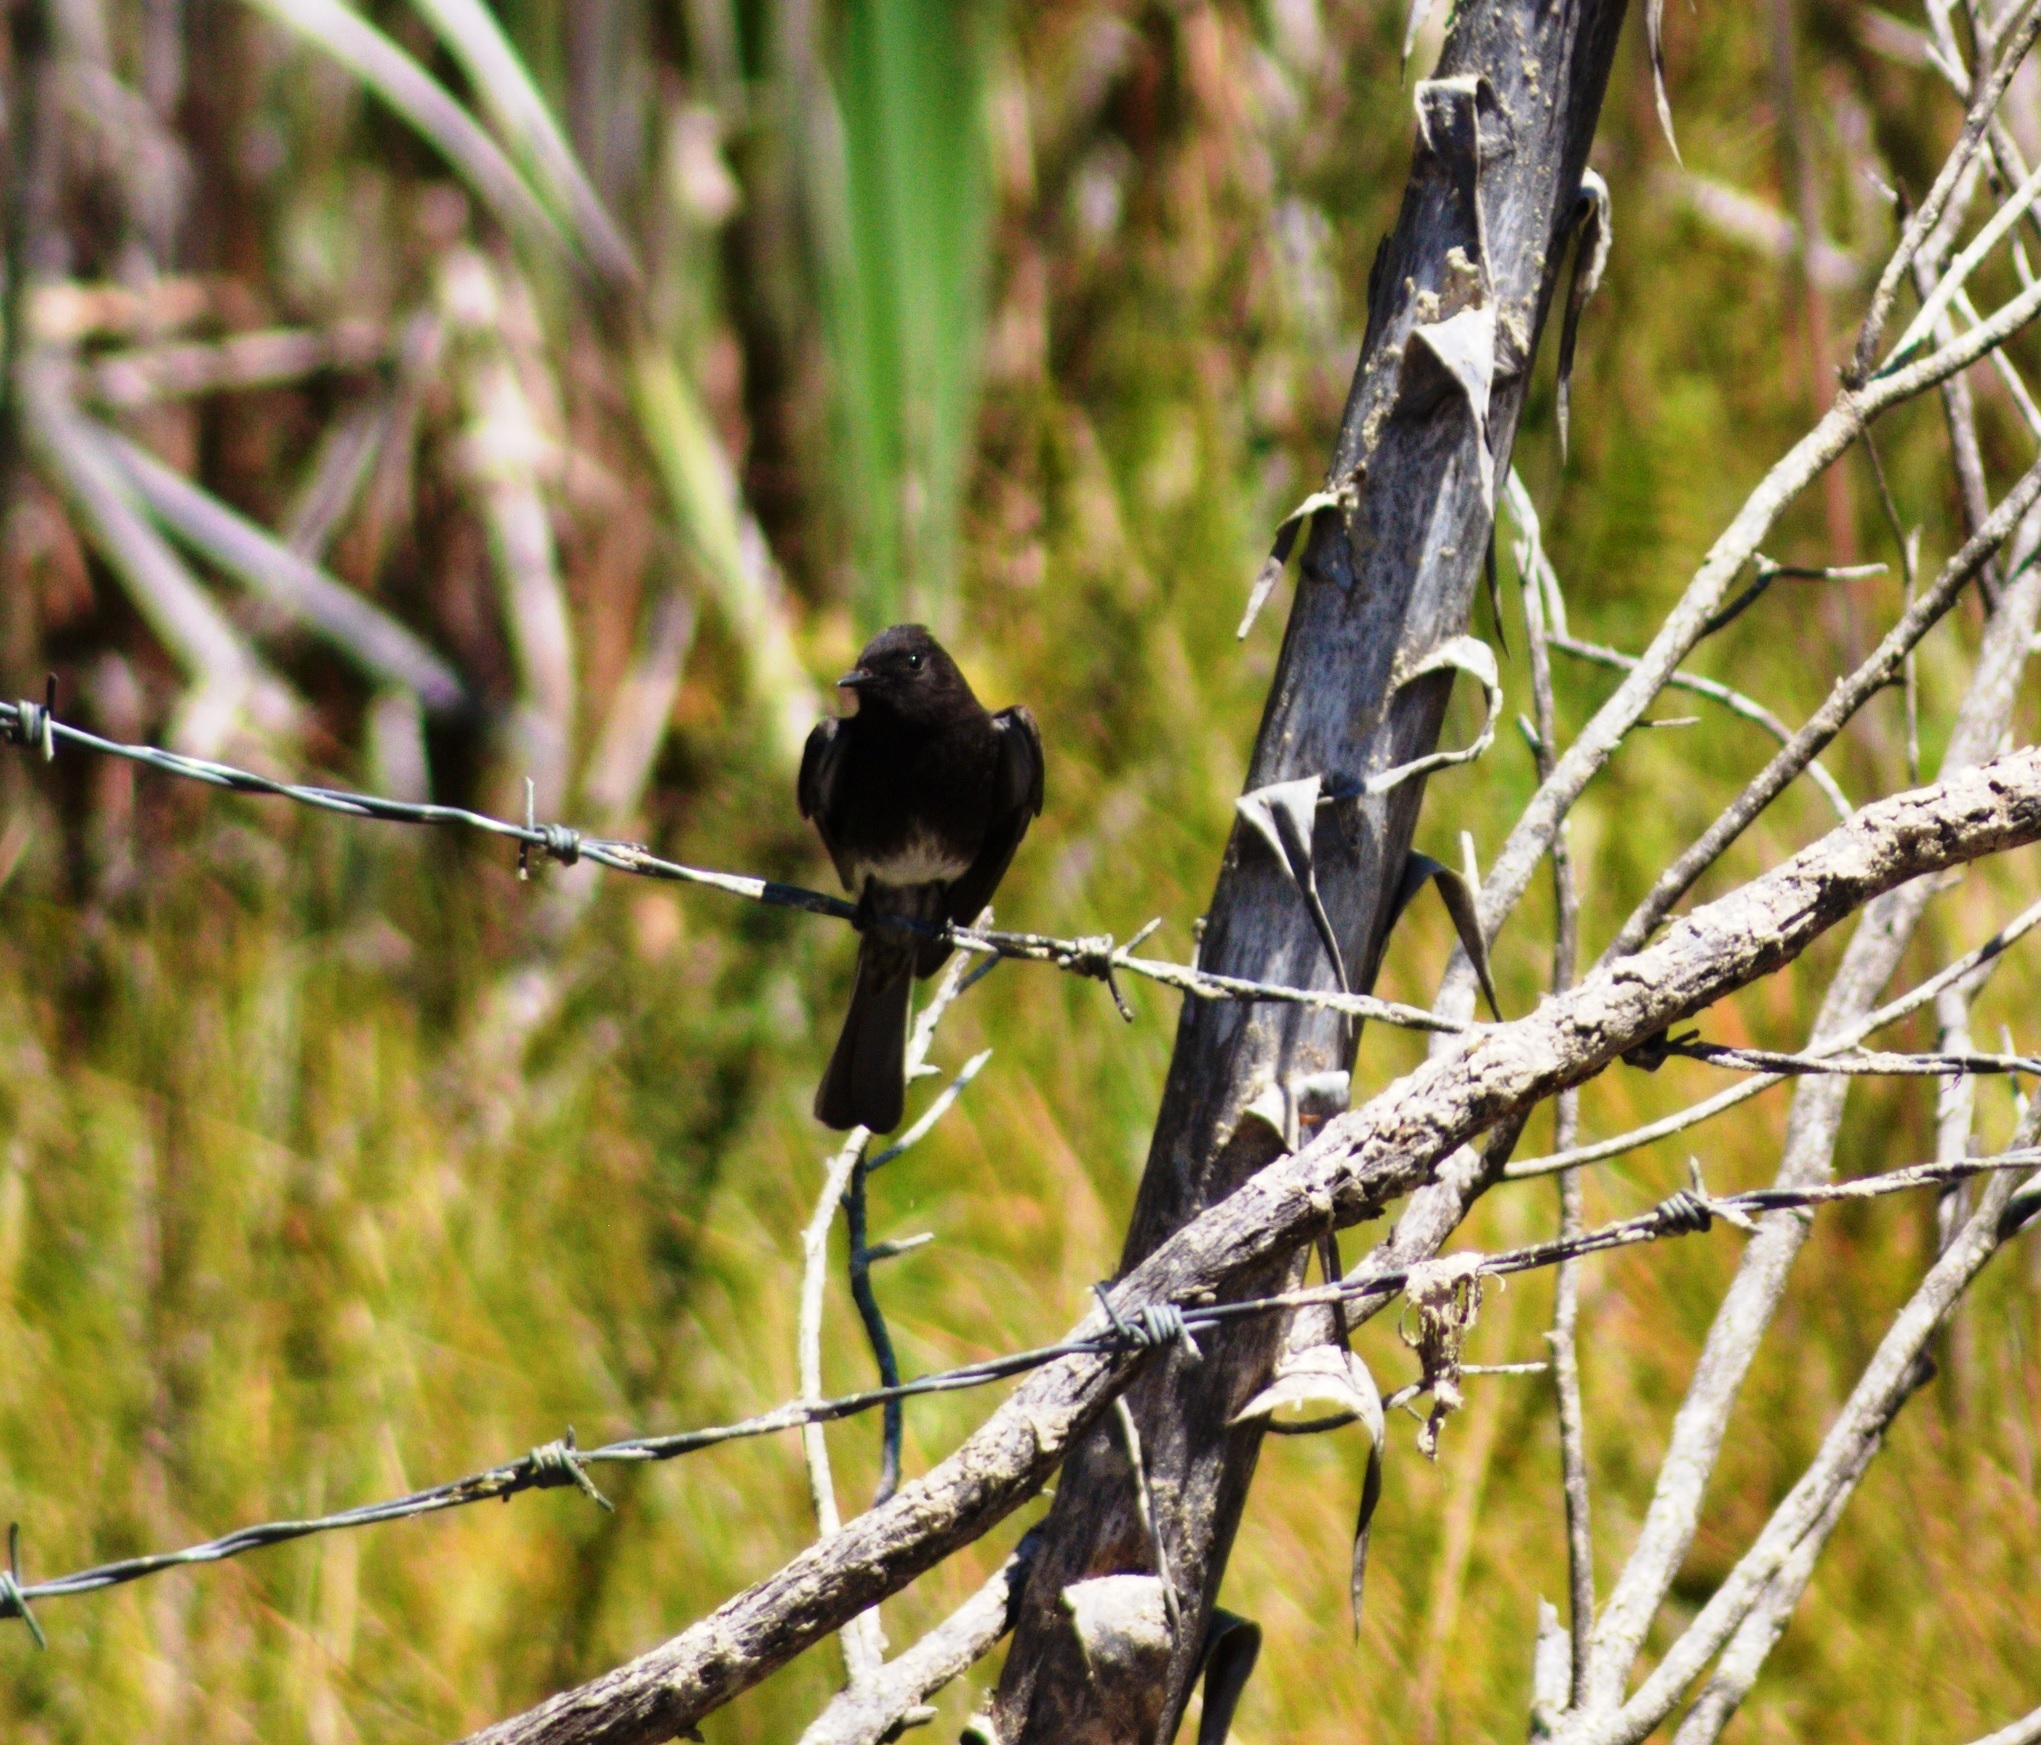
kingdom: Animalia
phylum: Chordata
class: Aves
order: Passeriformes
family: Tyrannidae
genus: Sayornis
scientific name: Sayornis nigricans
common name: Black phoebe
